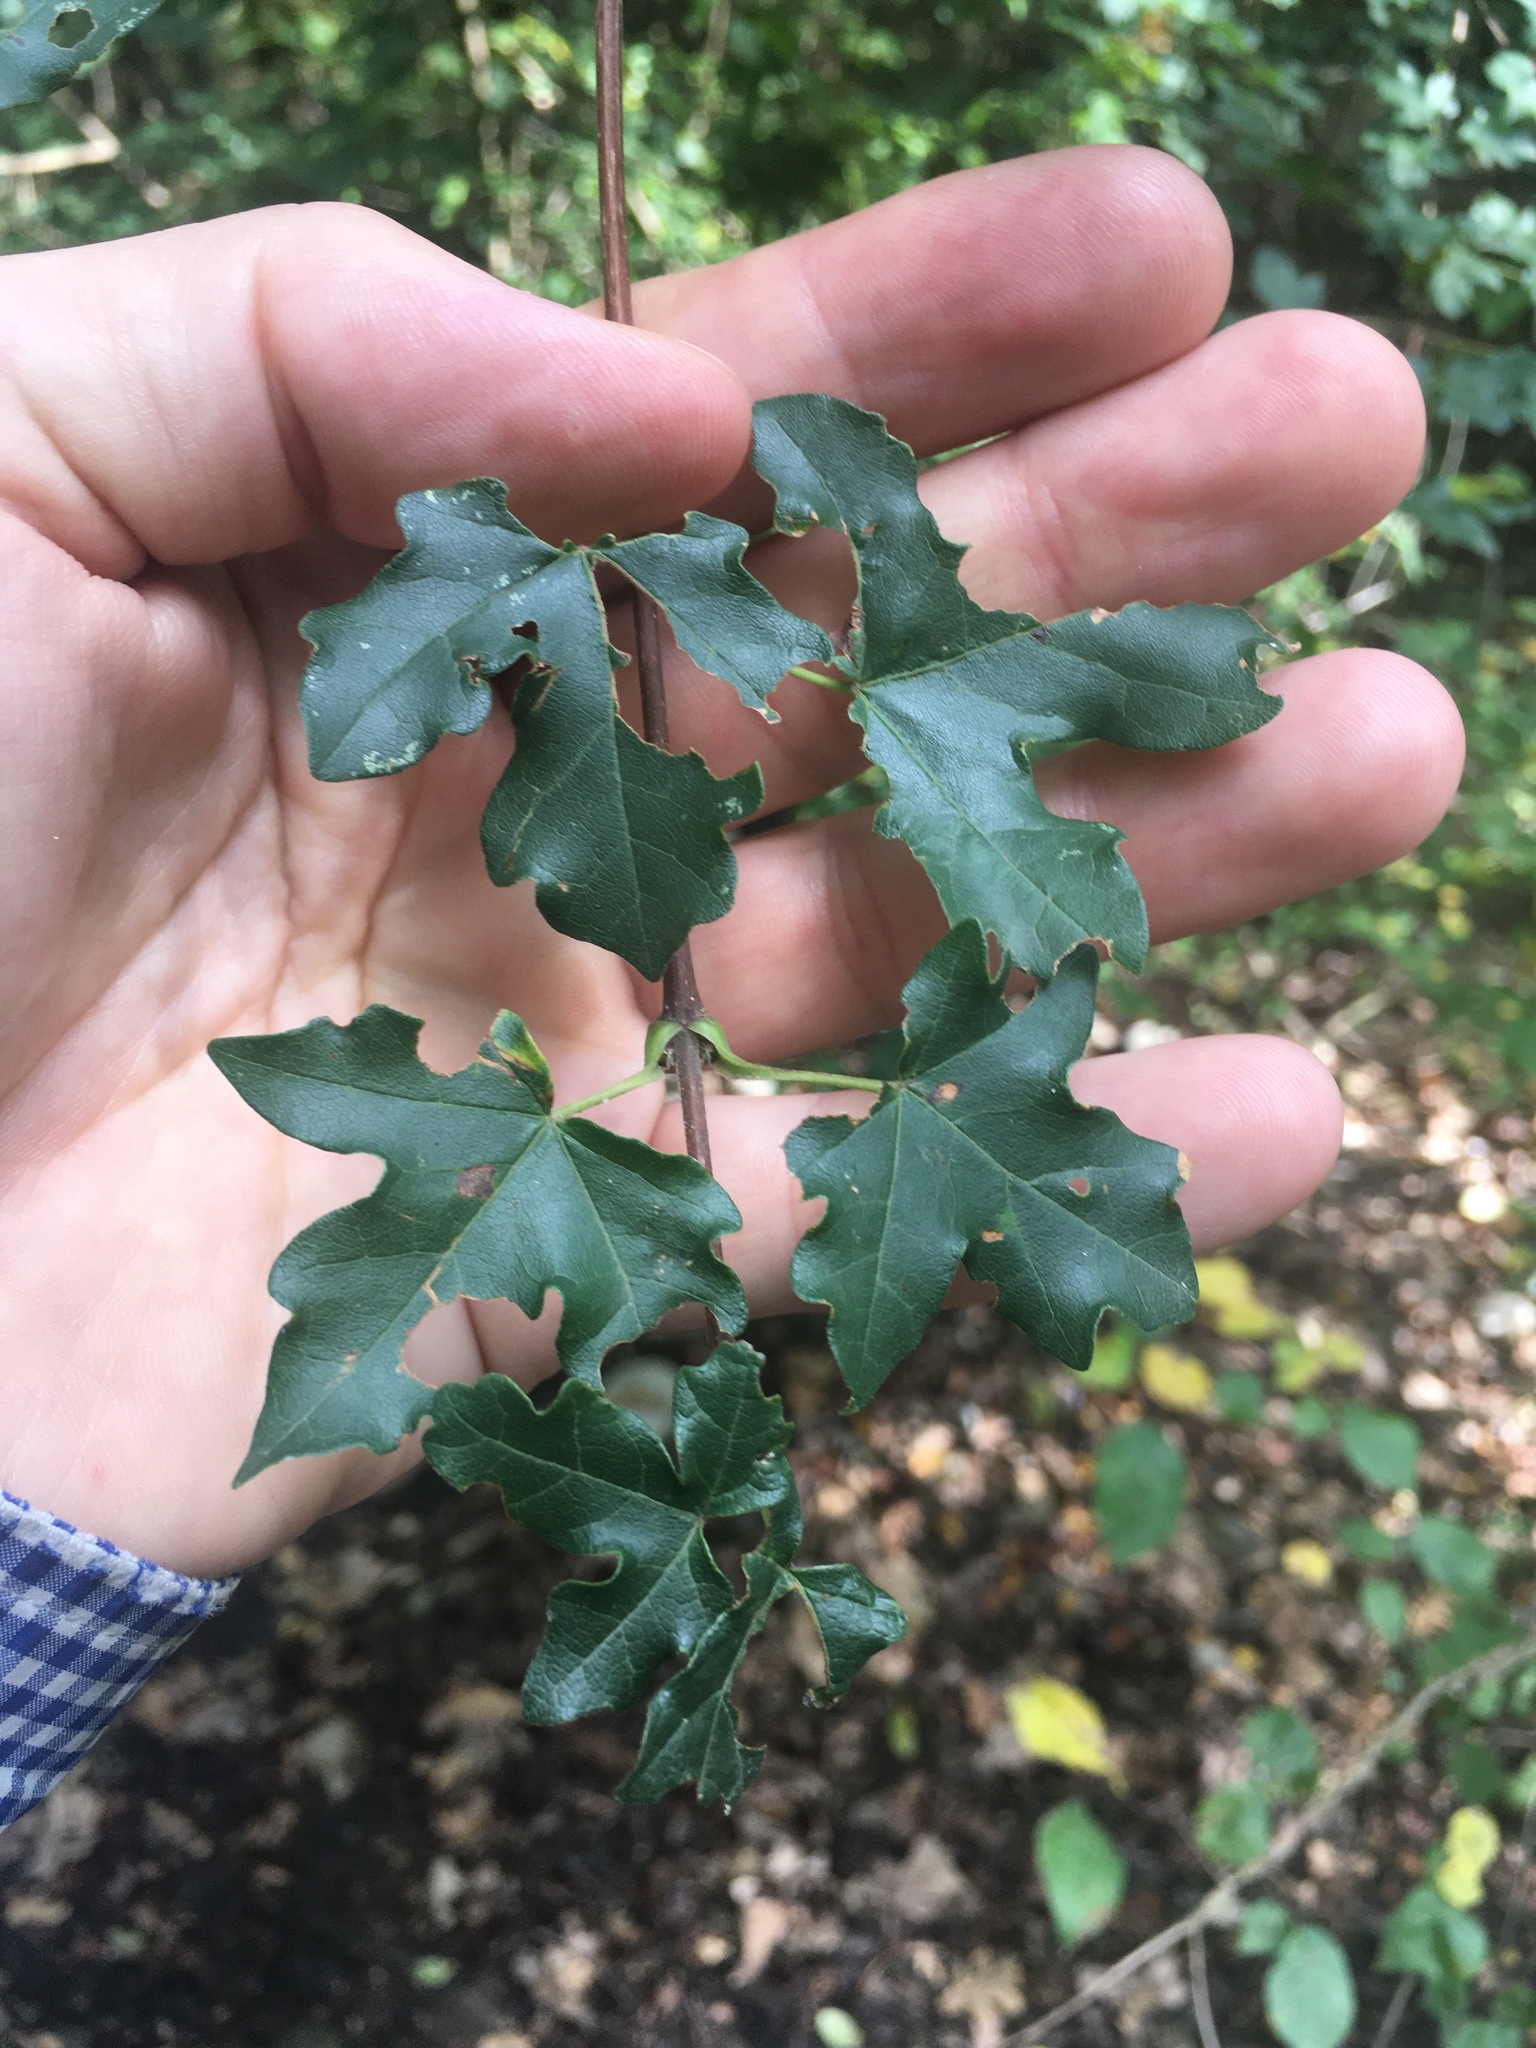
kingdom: Plantae
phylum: Tracheophyta
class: Magnoliopsida
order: Sapindales
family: Sapindaceae
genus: Acer
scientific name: Acer campestre
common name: Field maple
